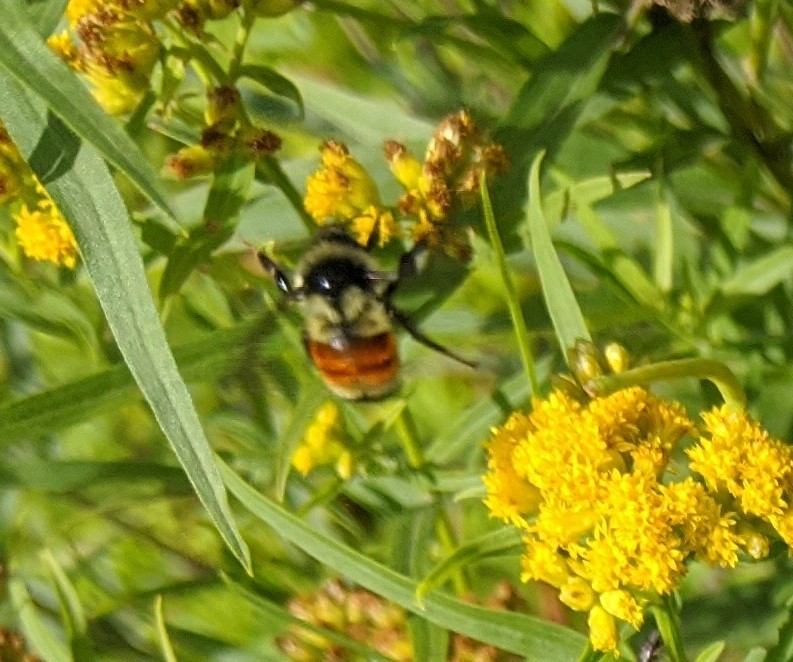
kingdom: Animalia
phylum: Arthropoda
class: Insecta
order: Hymenoptera
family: Apidae
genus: Bombus
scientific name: Bombus ternarius
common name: Tri-colored bumble bee
